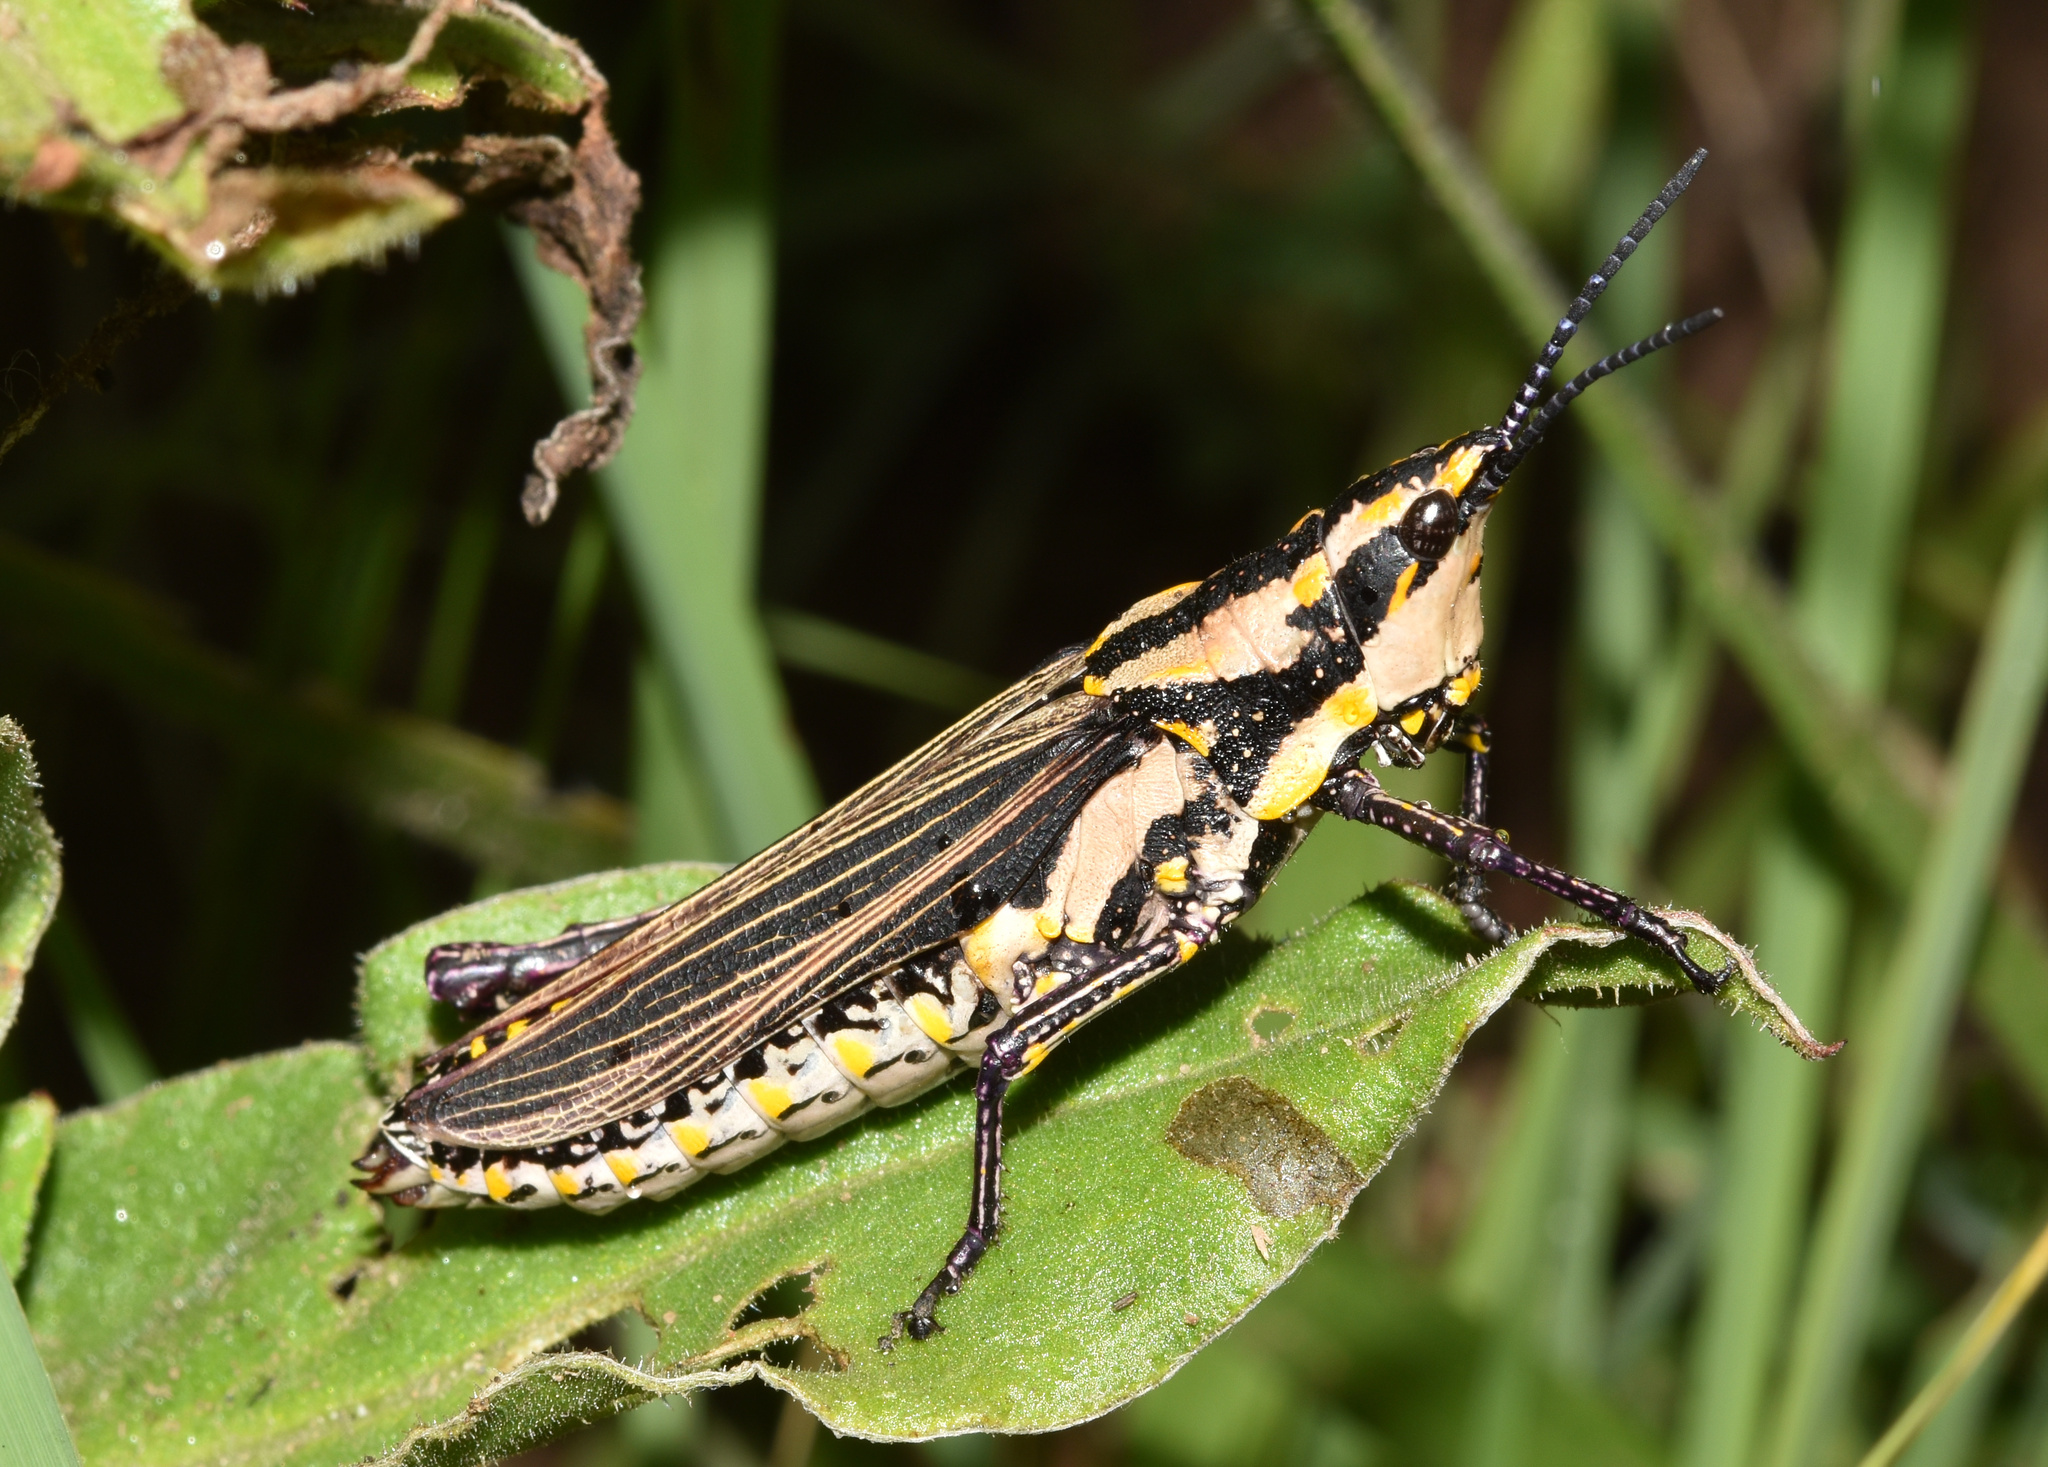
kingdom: Animalia
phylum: Arthropoda
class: Insecta
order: Orthoptera
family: Pyrgomorphidae
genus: Ochrophlebia
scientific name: Ochrophlebia cafra
